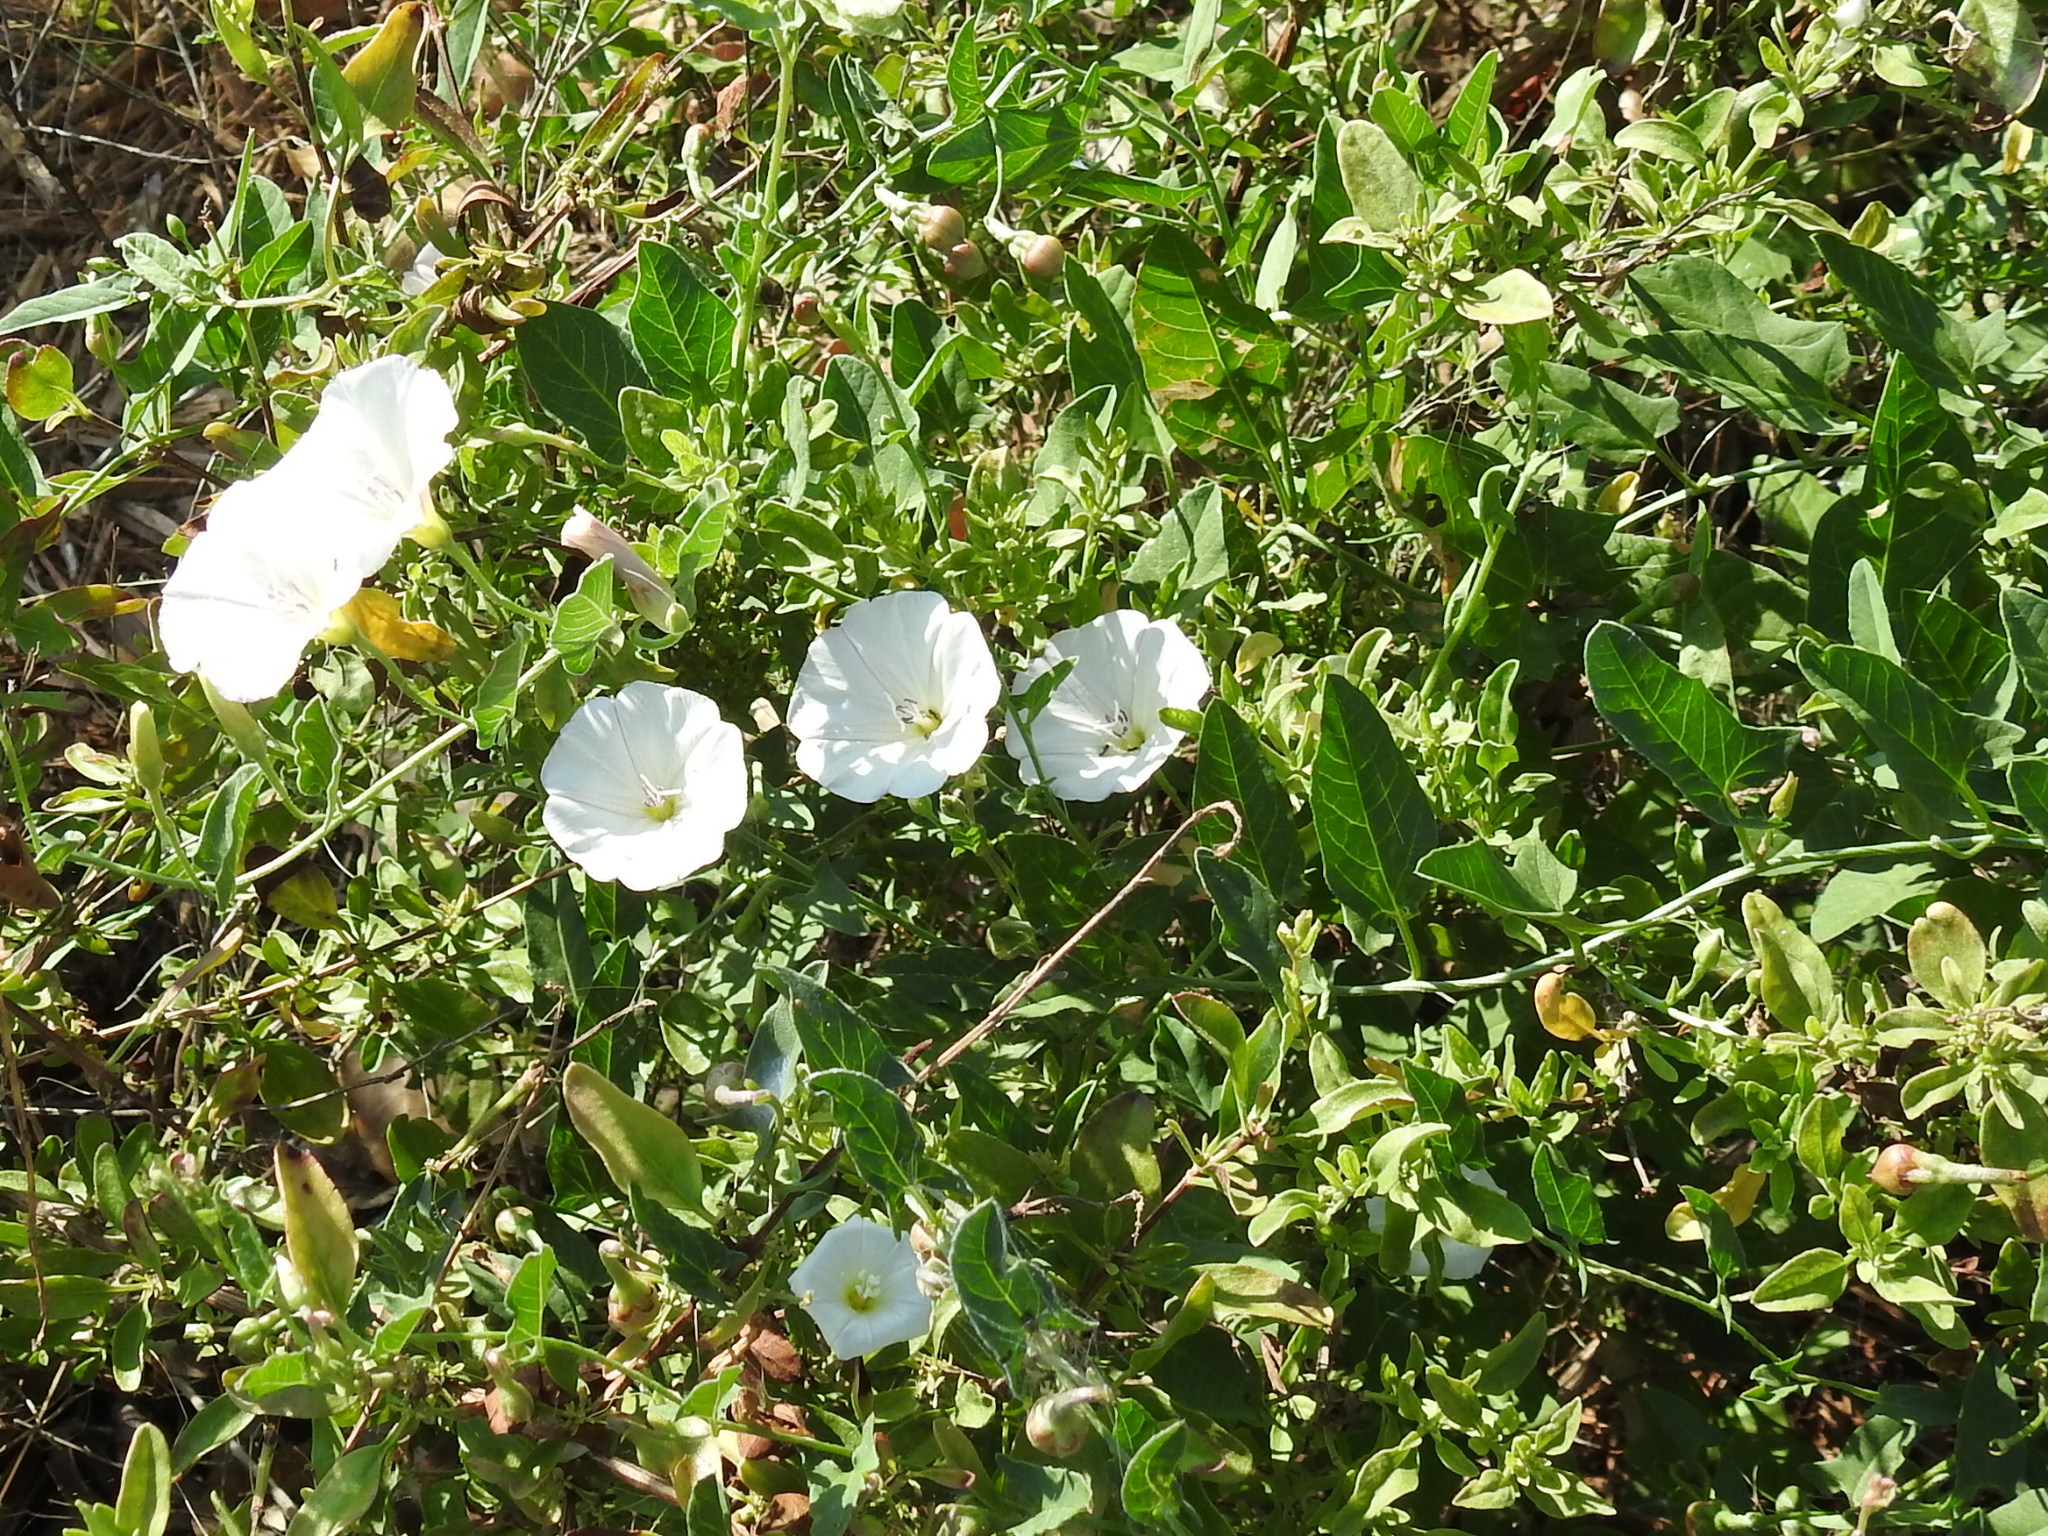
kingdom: Plantae
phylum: Tracheophyta
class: Magnoliopsida
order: Solanales
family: Convolvulaceae
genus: Convolvulus
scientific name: Convolvulus arvensis
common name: Field bindweed
